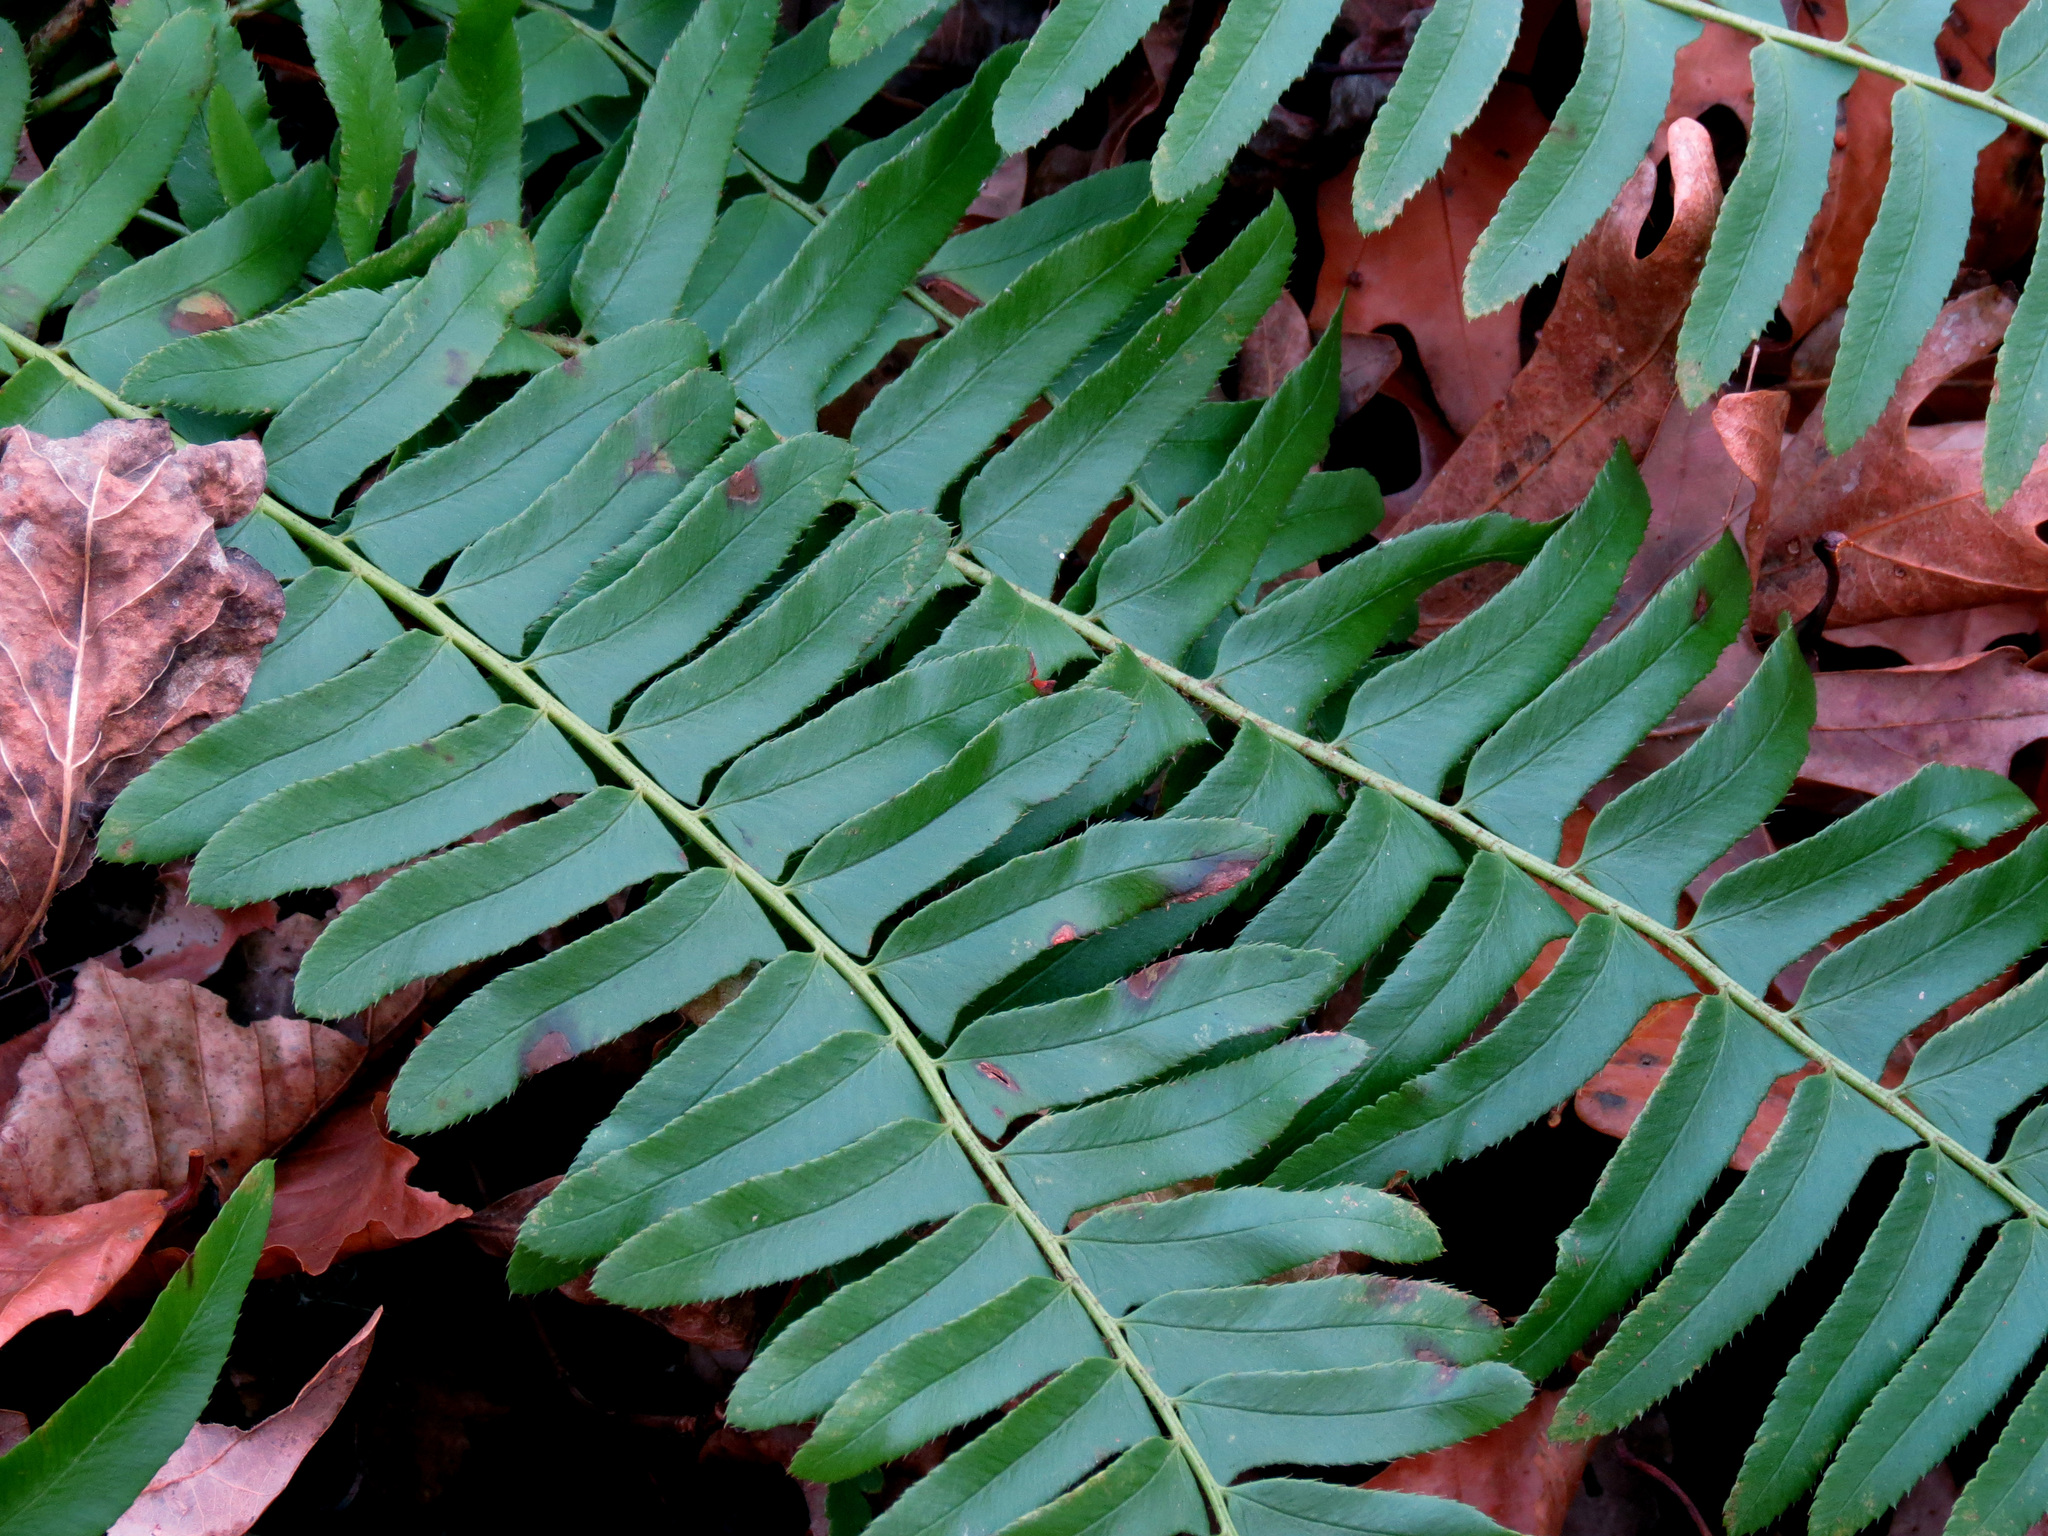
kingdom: Plantae
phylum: Tracheophyta
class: Polypodiopsida
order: Polypodiales
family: Dryopteridaceae
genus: Polystichum
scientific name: Polystichum acrostichoides
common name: Christmas fern
